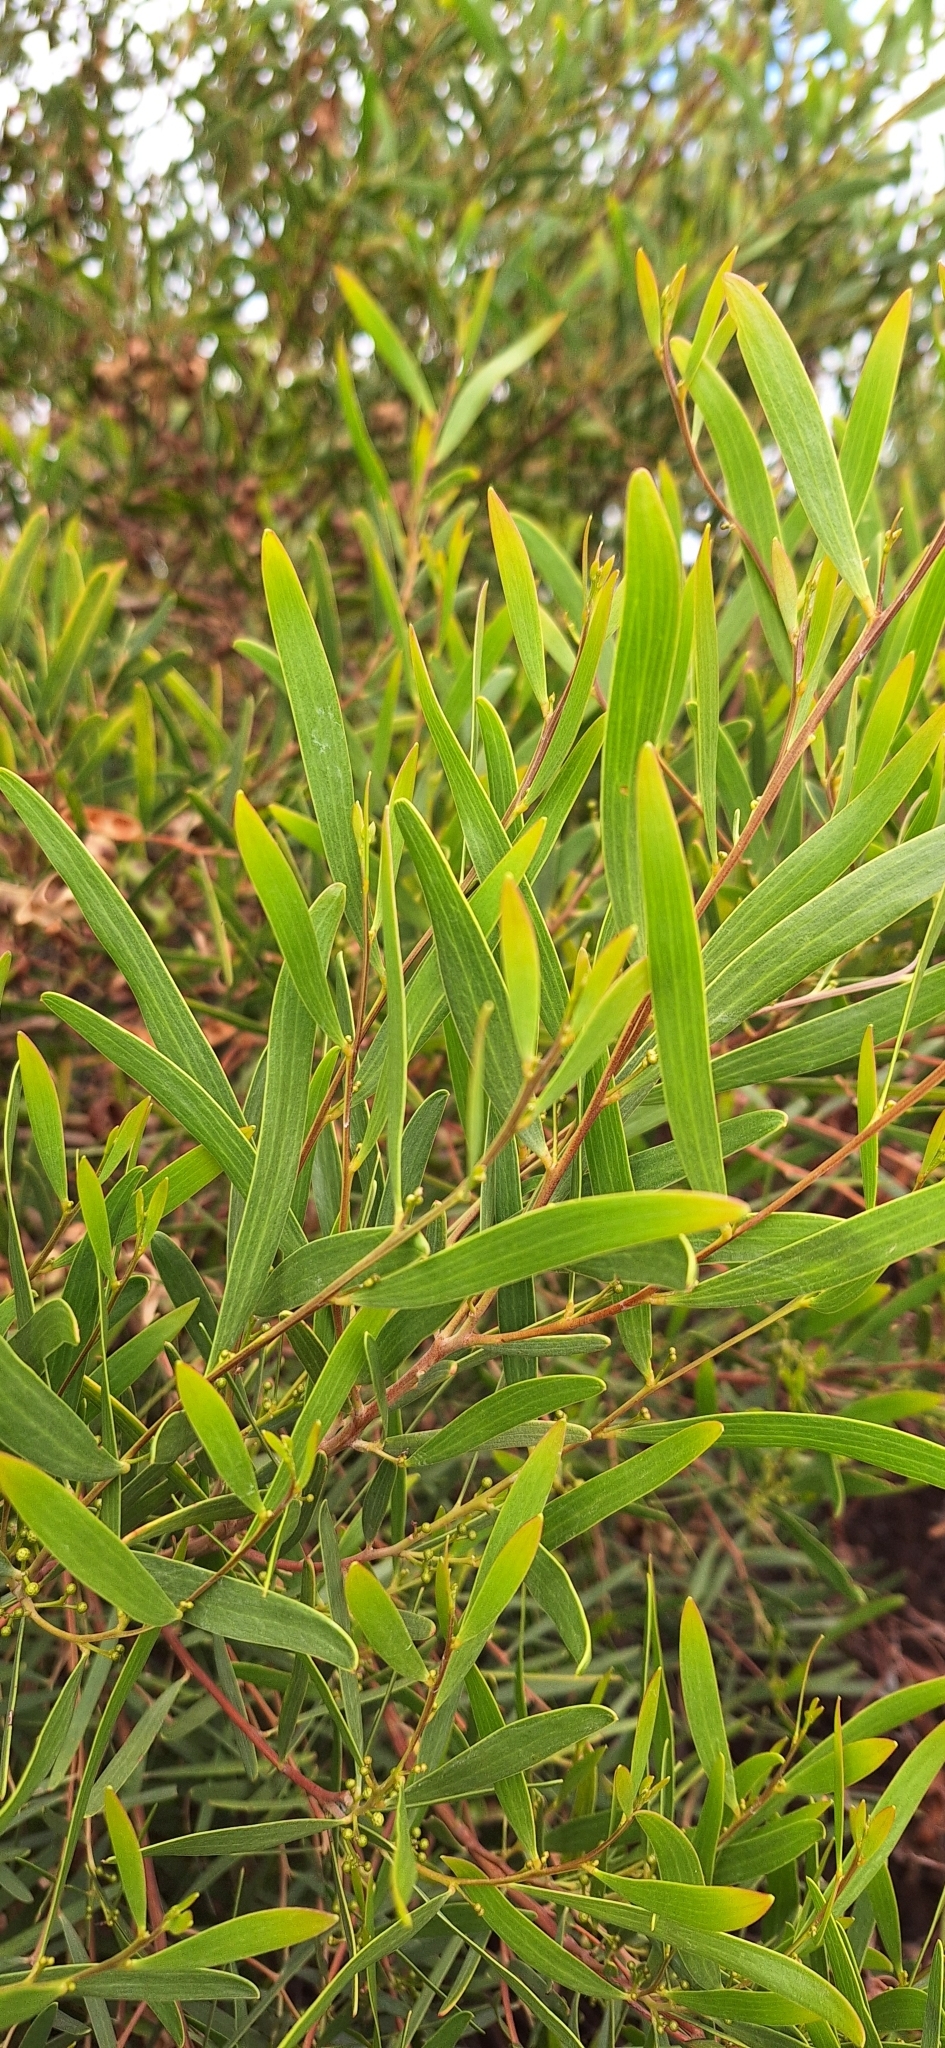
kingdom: Plantae
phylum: Tracheophyta
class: Magnoliopsida
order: Fabales
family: Fabaceae
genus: Acacia
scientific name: Acacia cyclops
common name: Coastal wattle
